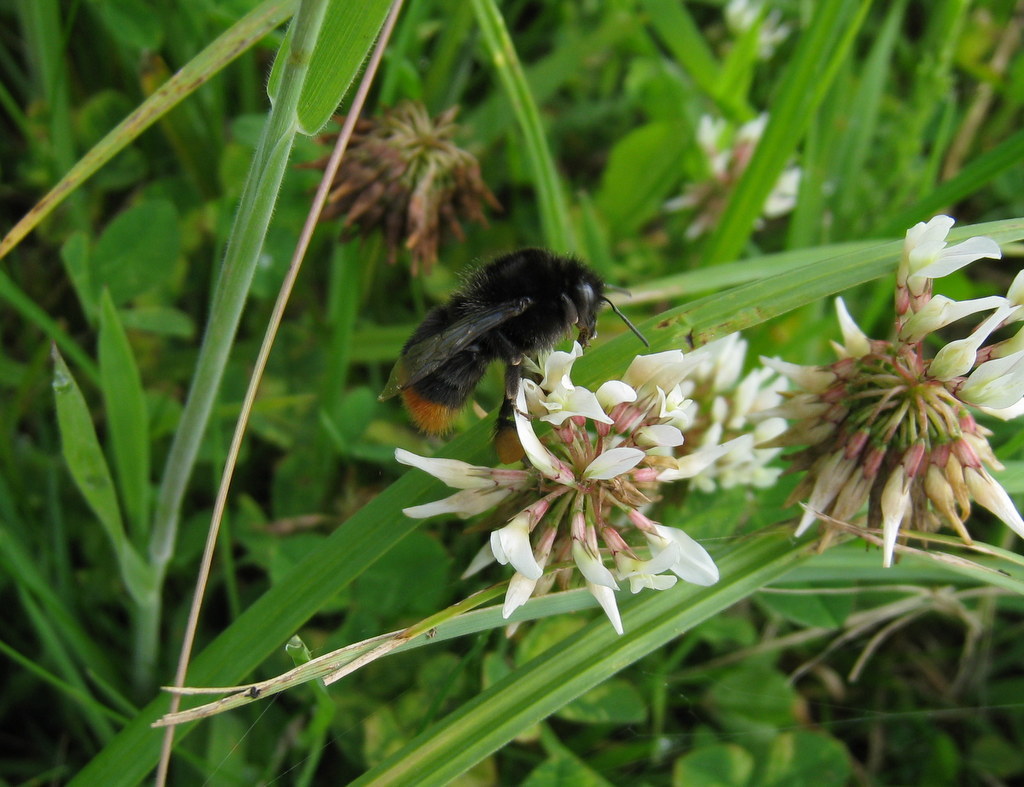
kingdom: Animalia
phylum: Arthropoda
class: Insecta
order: Hymenoptera
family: Apidae
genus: Bombus
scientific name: Bombus lapidarius
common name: Large red-tailed humble-bee
